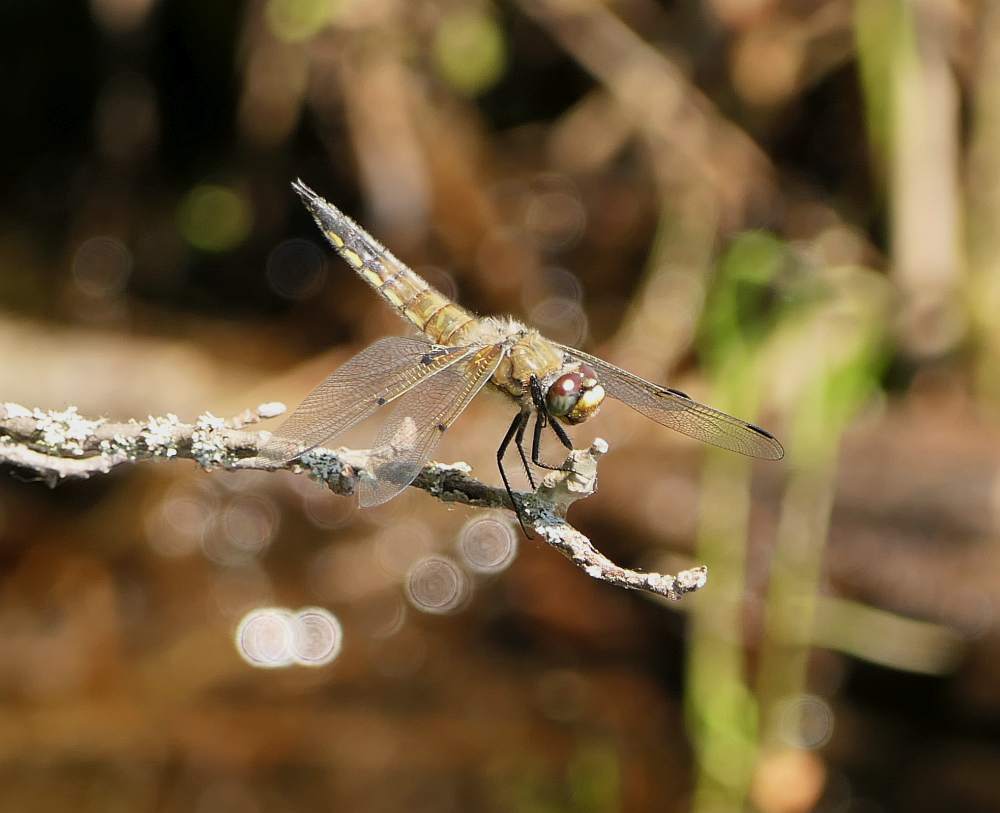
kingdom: Animalia
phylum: Arthropoda
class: Insecta
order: Odonata
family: Libellulidae
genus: Libellula
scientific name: Libellula quadrimaculata
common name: Four-spotted chaser
